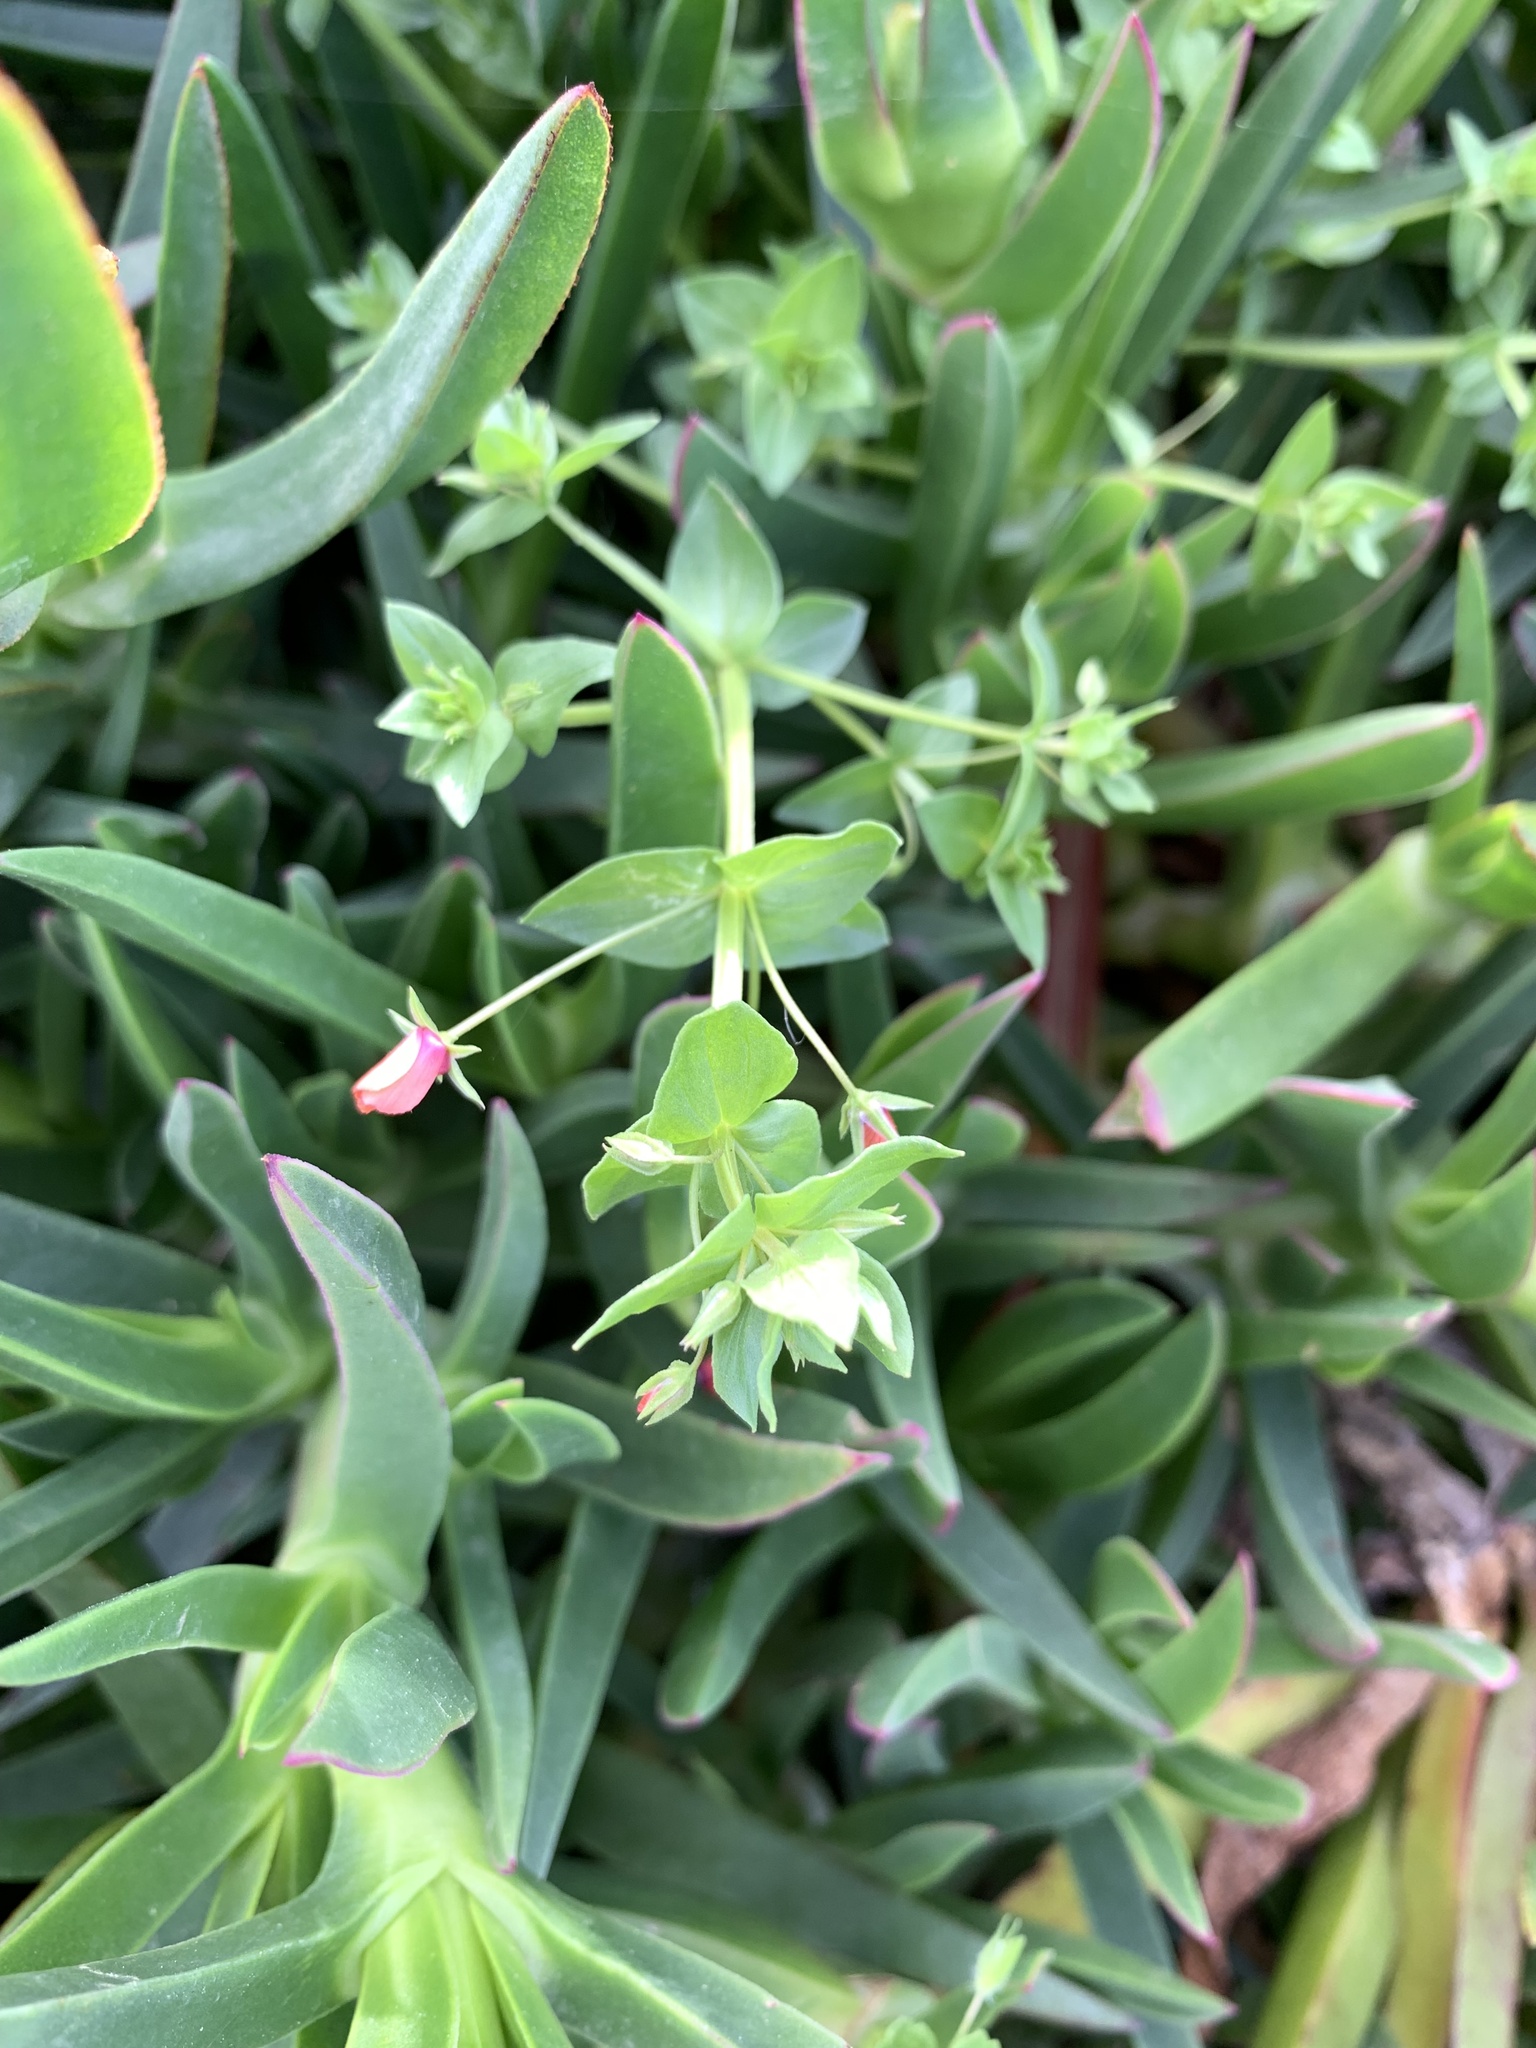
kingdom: Plantae
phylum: Tracheophyta
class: Magnoliopsida
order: Ericales
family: Primulaceae
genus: Lysimachia
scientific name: Lysimachia arvensis
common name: Scarlet pimpernel
